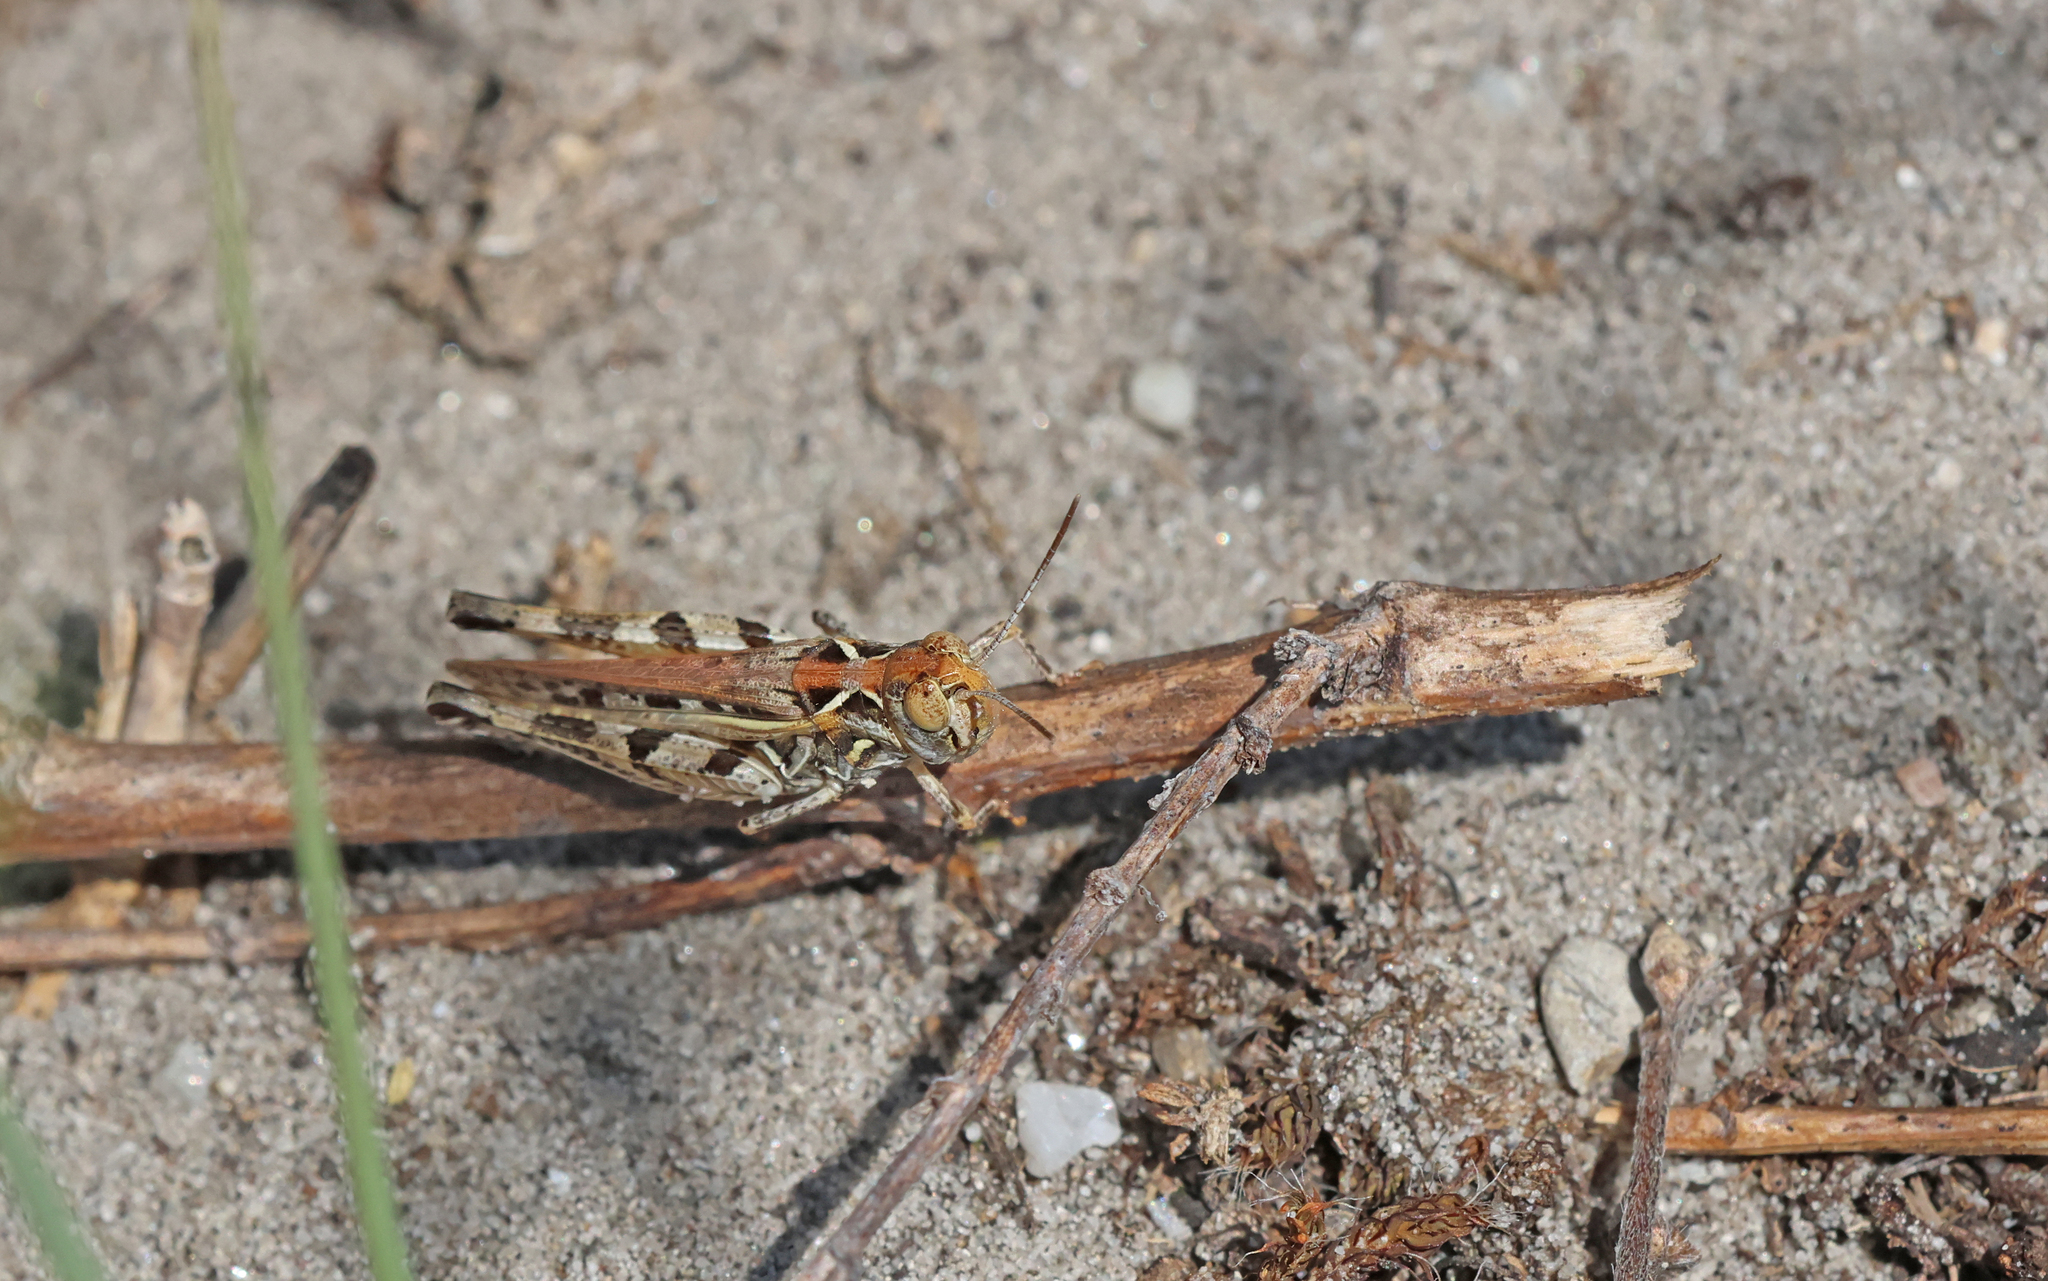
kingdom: Animalia
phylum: Arthropoda
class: Insecta
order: Orthoptera
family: Acrididae
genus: Dociostaurus
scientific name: Dociostaurus brevicollis
